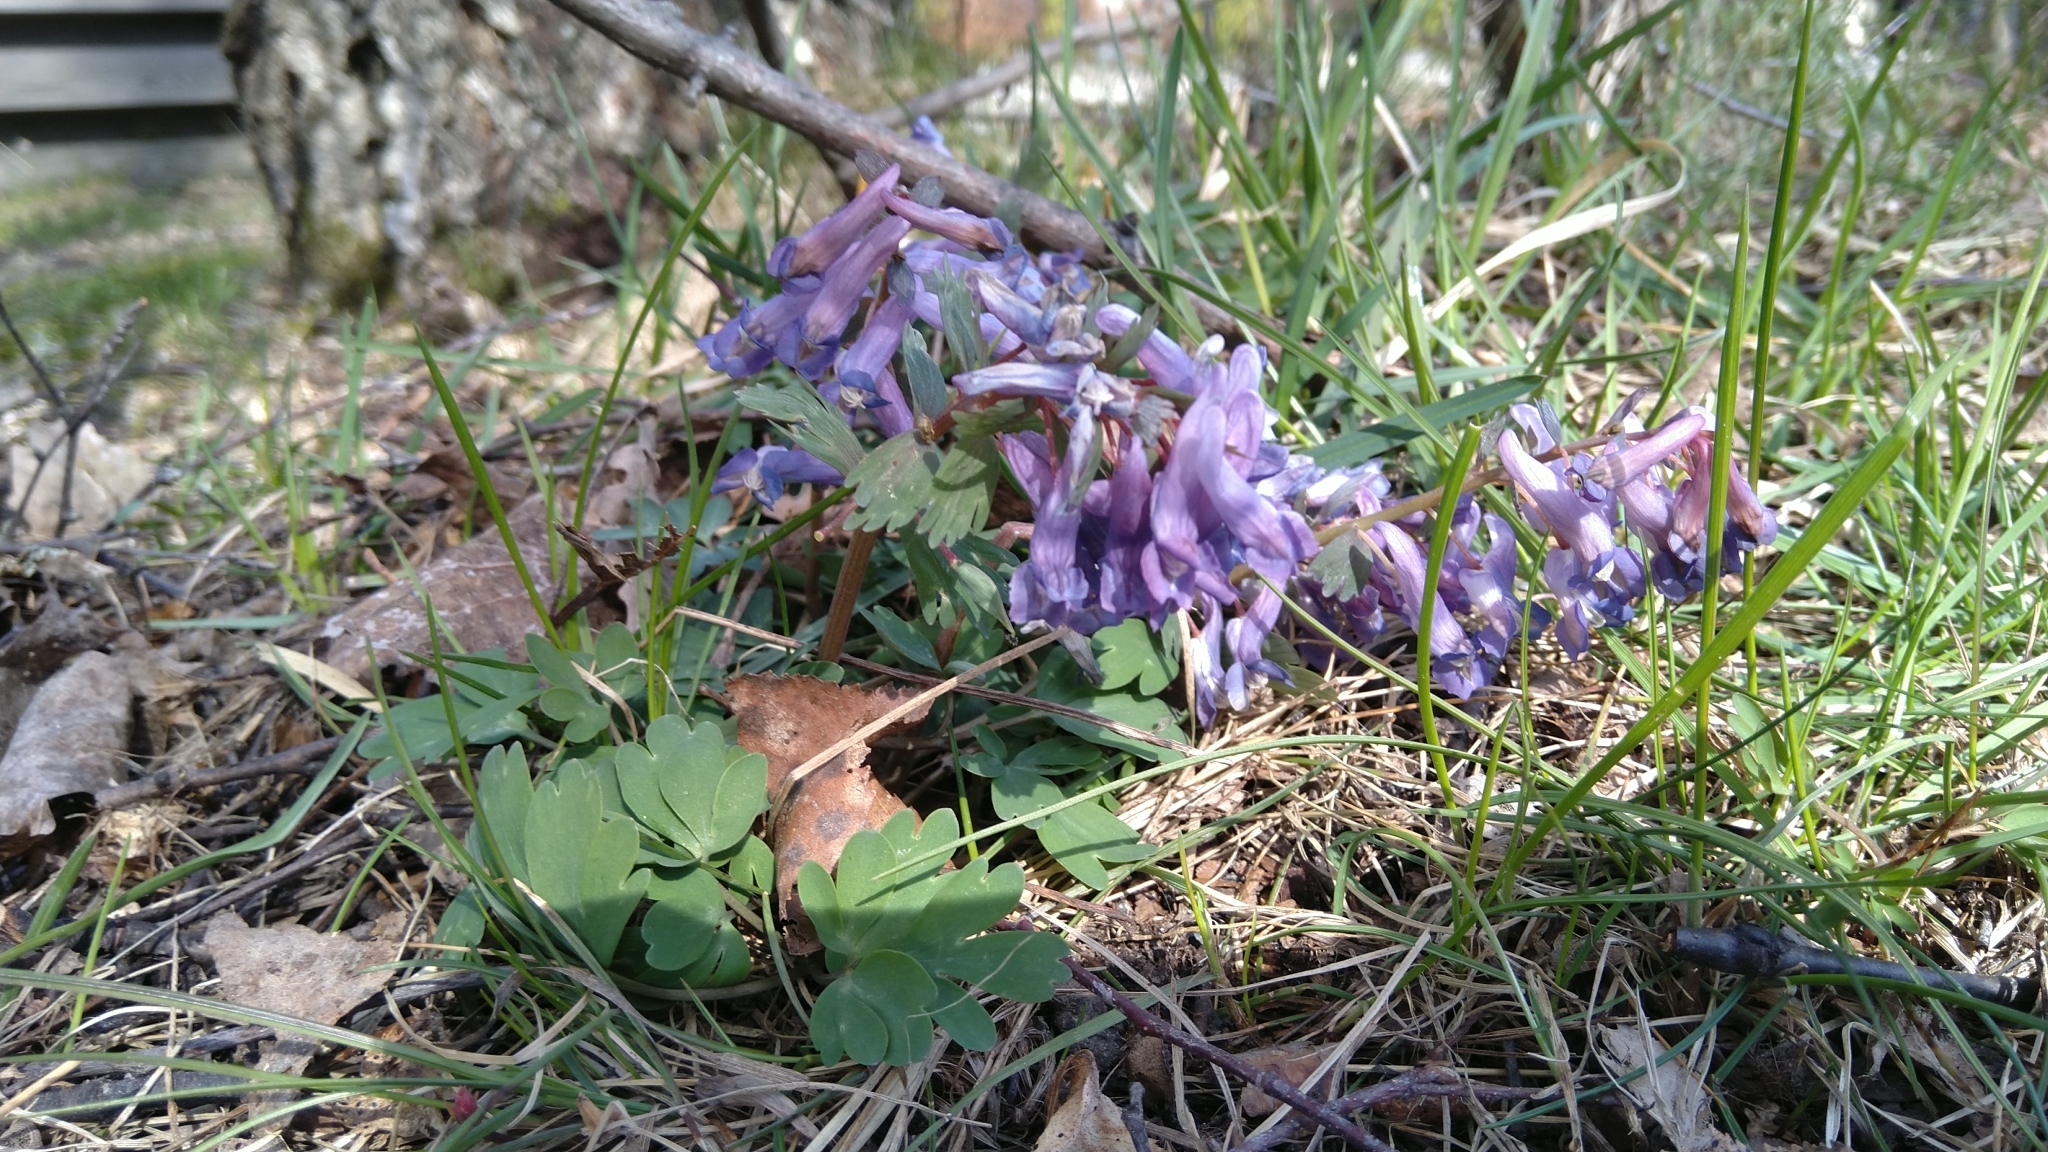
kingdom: Plantae
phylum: Tracheophyta
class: Magnoliopsida
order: Ranunculales
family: Papaveraceae
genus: Corydalis
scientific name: Corydalis solida
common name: Bird-in-a-bush
